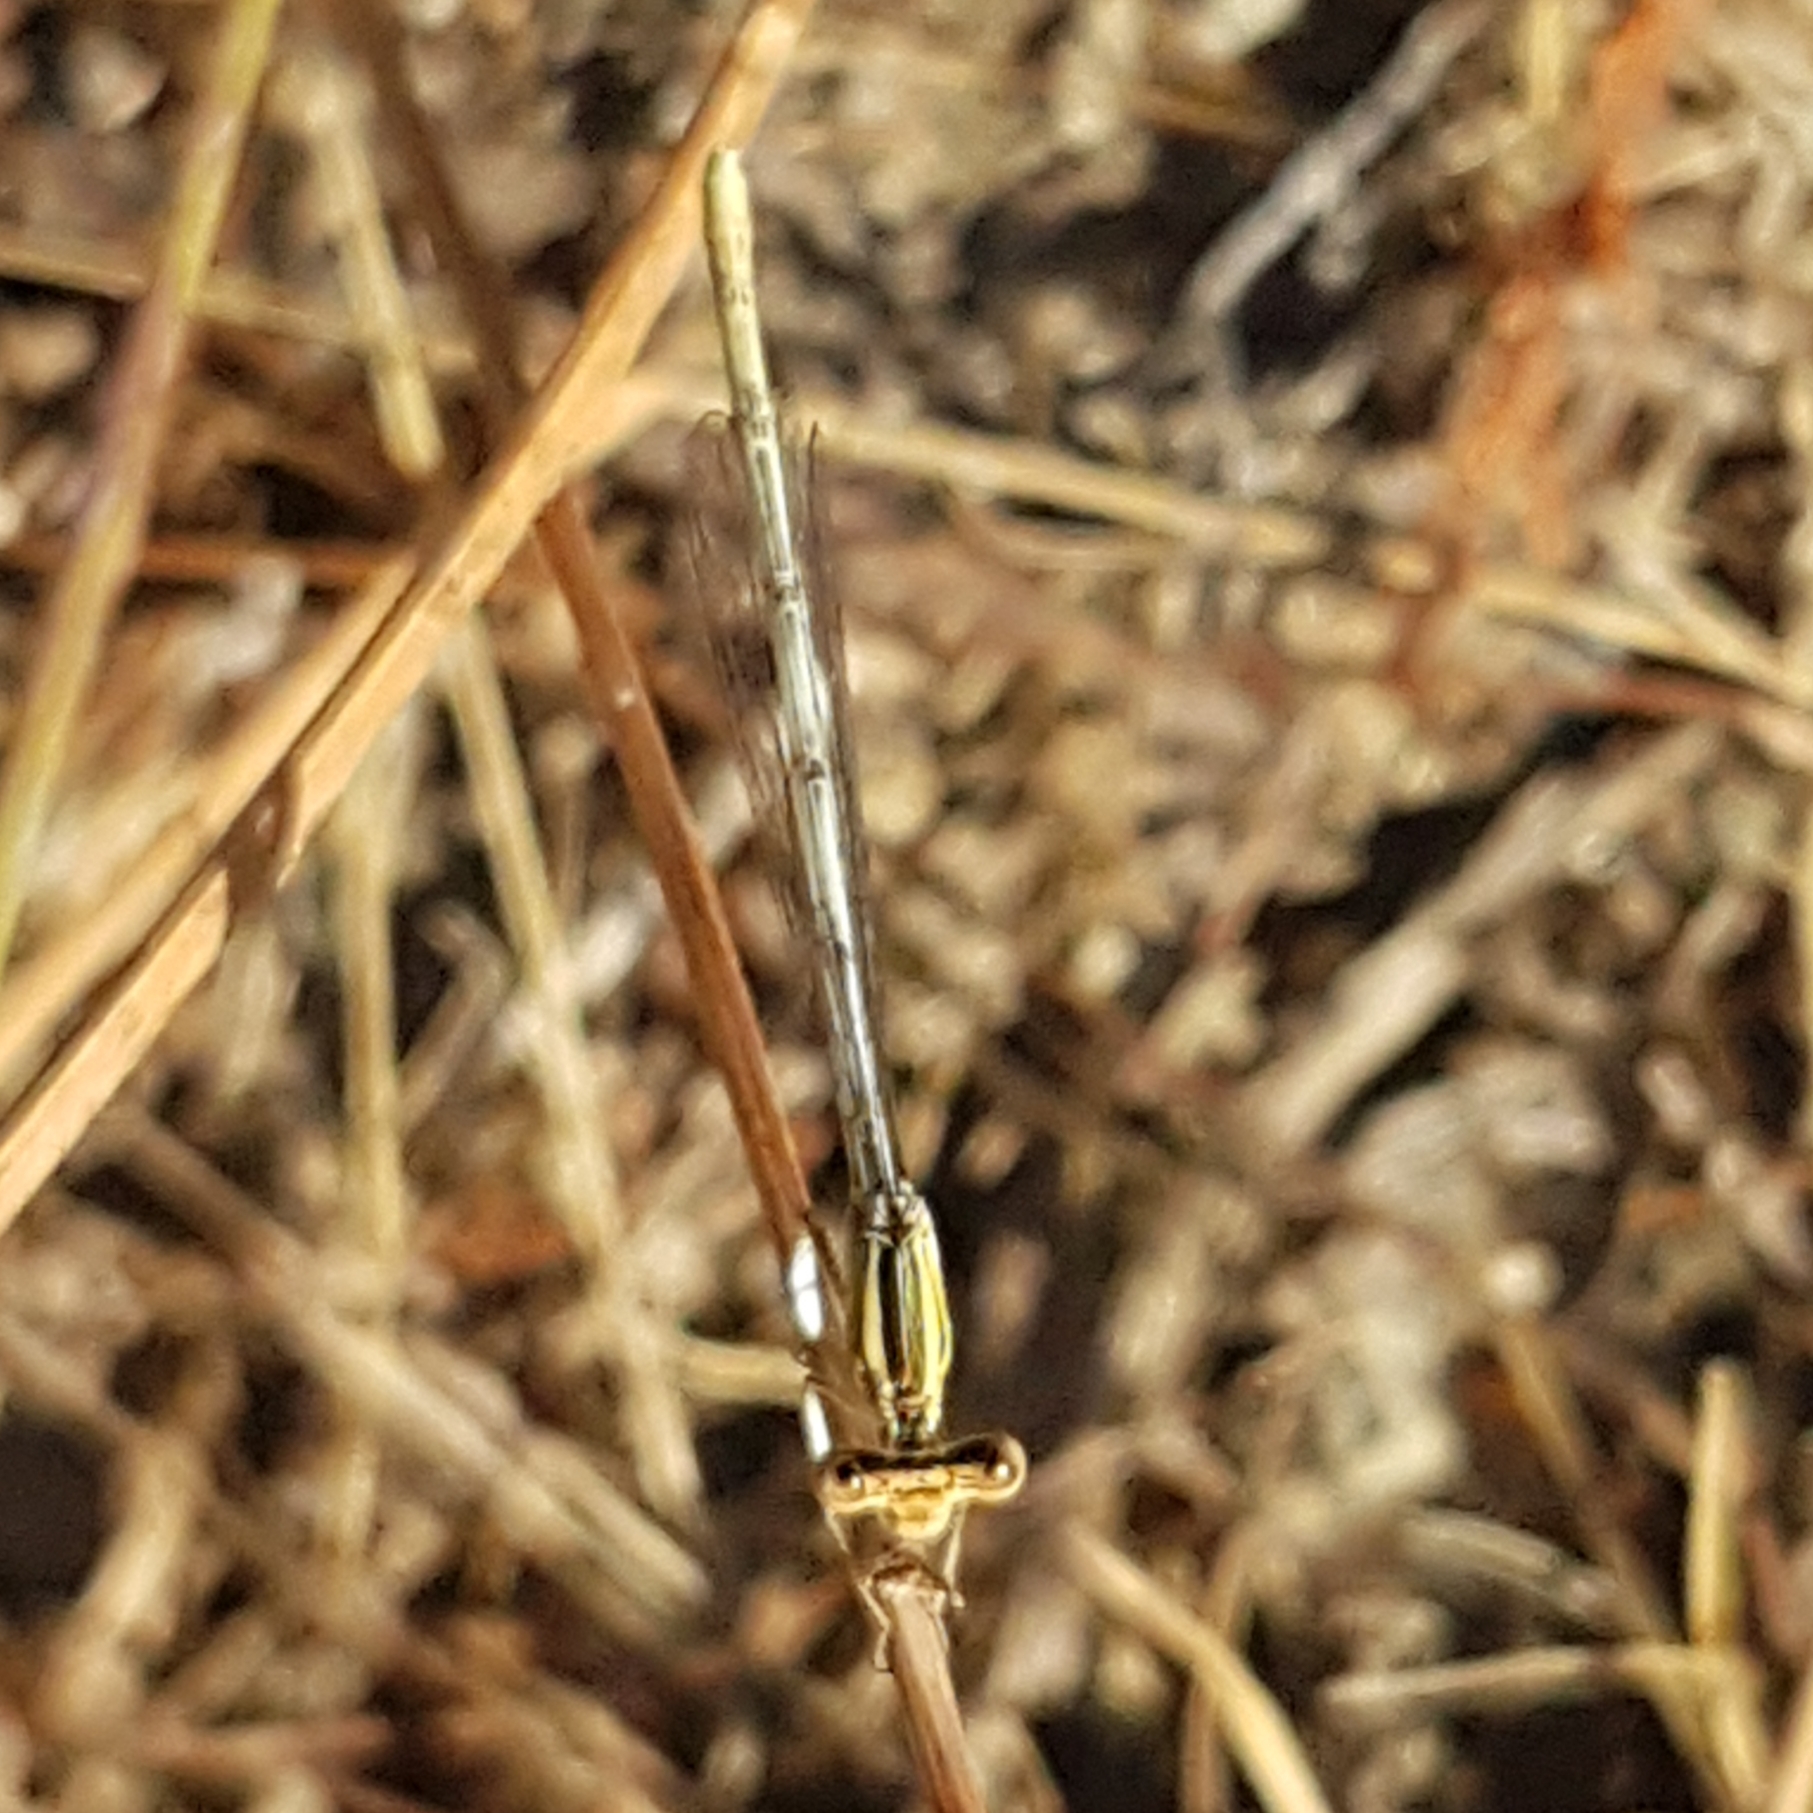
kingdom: Animalia
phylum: Arthropoda
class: Insecta
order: Odonata
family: Platycnemididae
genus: Platycnemis
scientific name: Platycnemis latipes
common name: White featherleg
